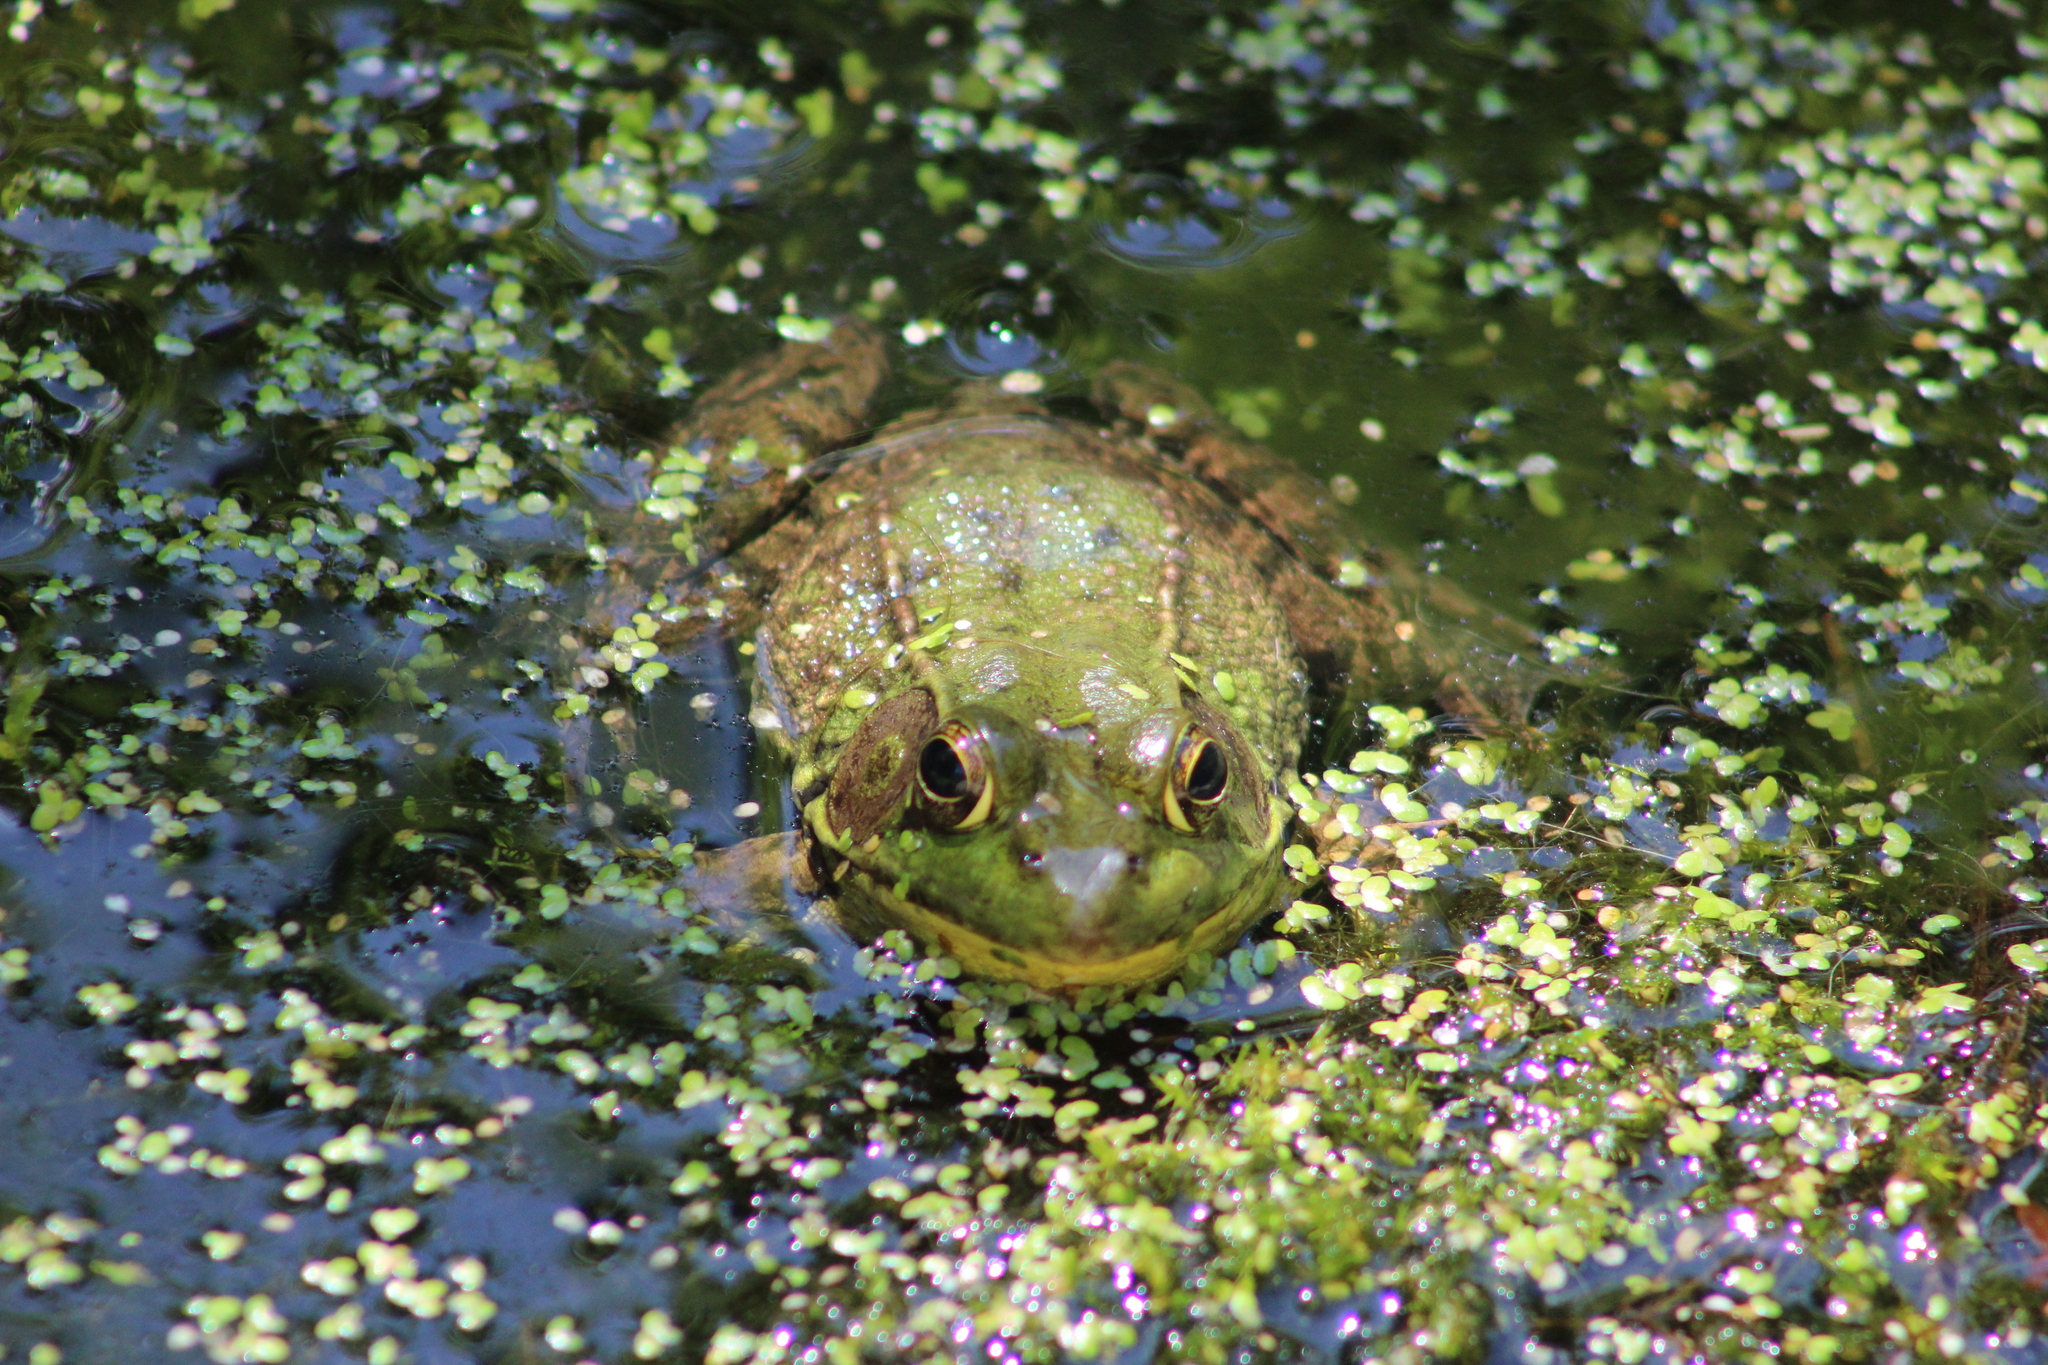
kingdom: Animalia
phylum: Chordata
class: Amphibia
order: Anura
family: Ranidae
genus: Lithobates
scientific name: Lithobates clamitans
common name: Green frog
